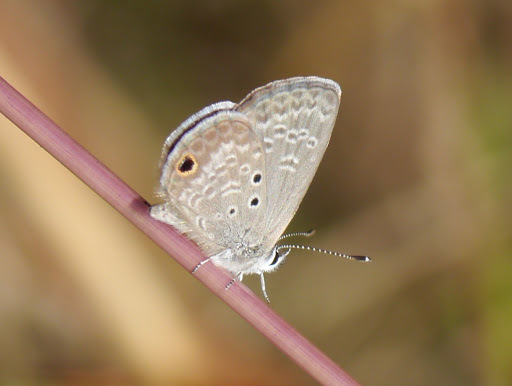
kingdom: Animalia
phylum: Arthropoda
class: Insecta
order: Lepidoptera
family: Lycaenidae
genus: Hemiargus
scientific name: Hemiargus ceraunus
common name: Ceraunus blue
